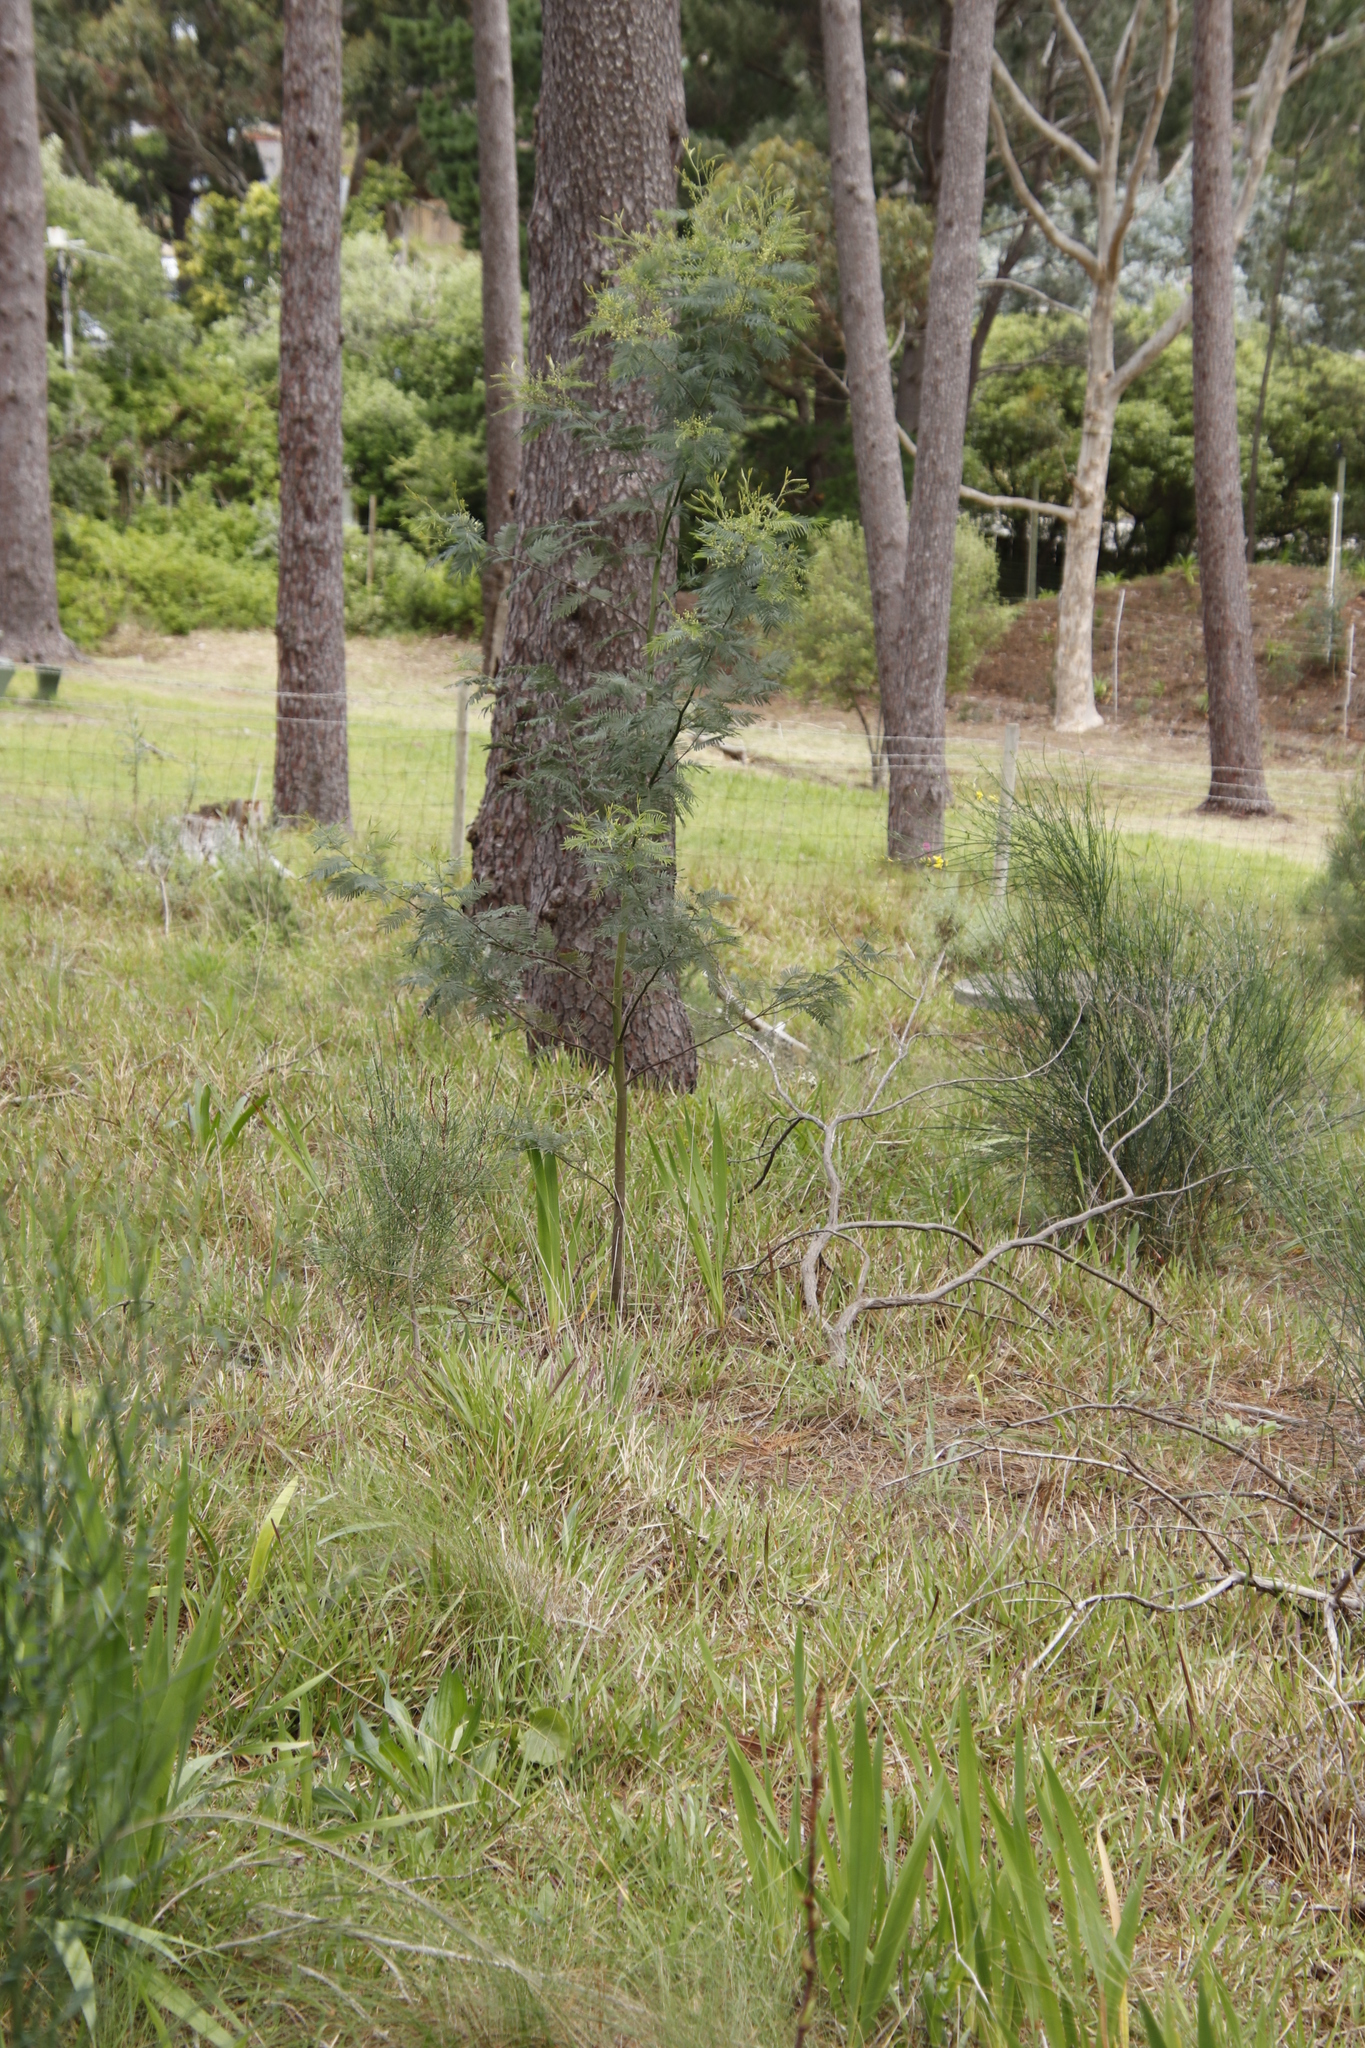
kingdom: Plantae
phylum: Tracheophyta
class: Magnoliopsida
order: Fabales
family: Fabaceae
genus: Acacia
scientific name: Acacia mearnsii
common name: Black wattle
